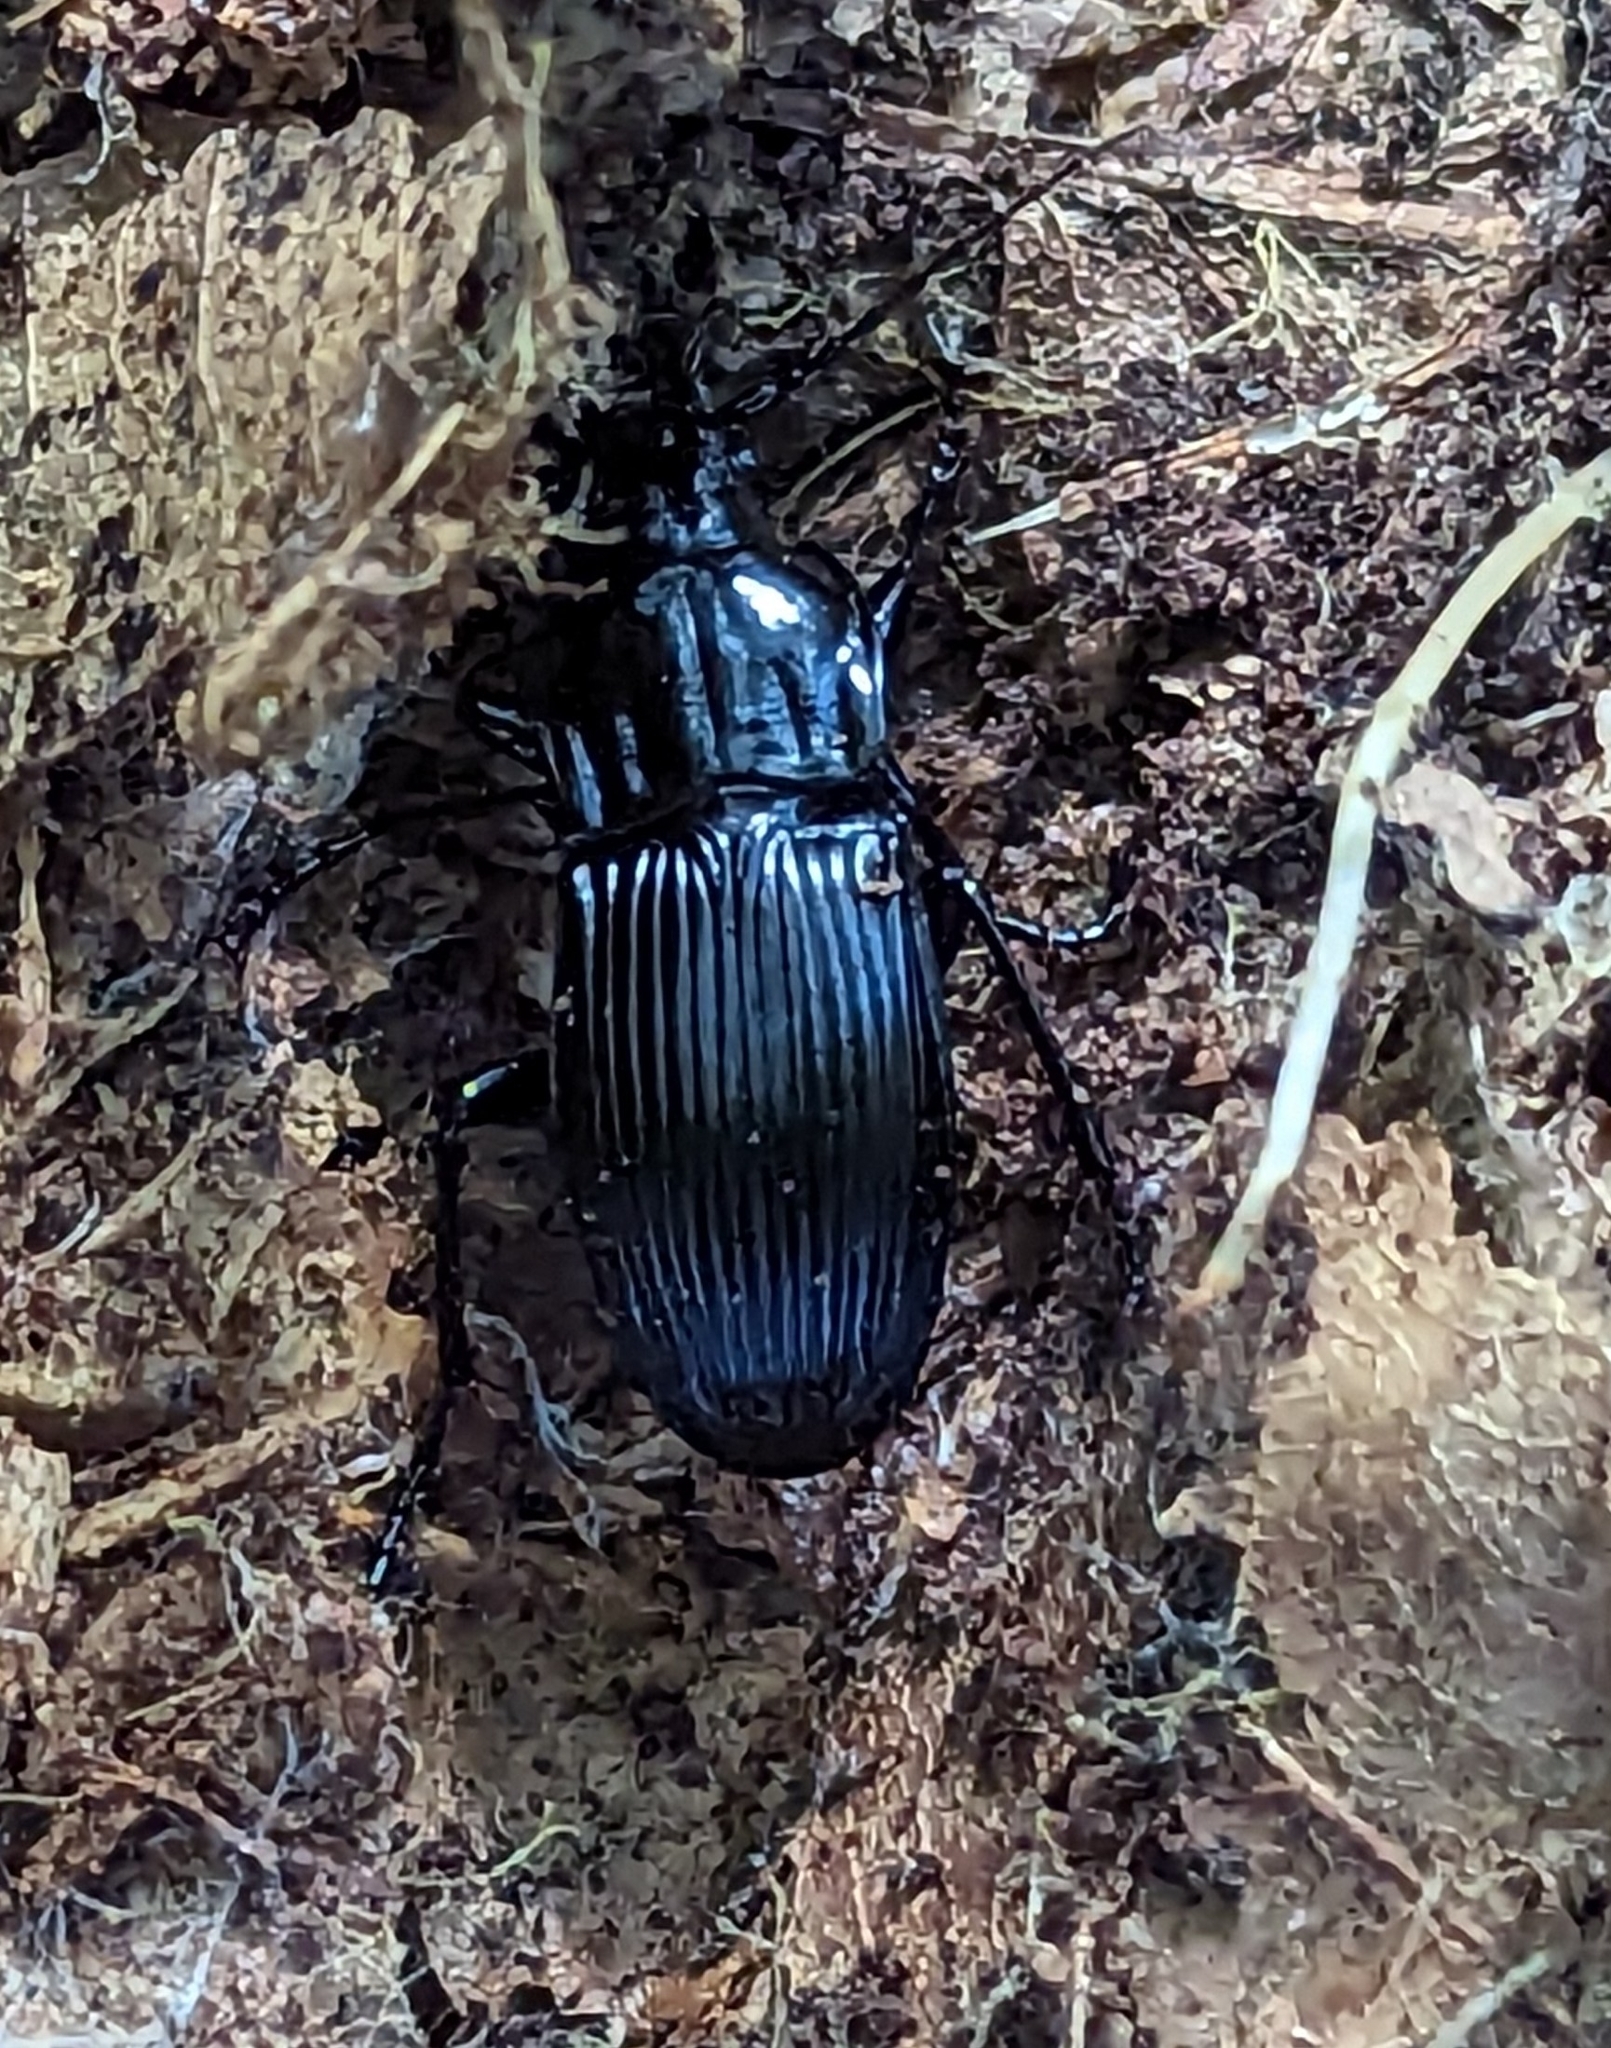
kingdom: Animalia
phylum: Arthropoda
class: Insecta
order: Coleoptera
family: Carabidae
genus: Abax
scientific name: Abax parallelepipedus
